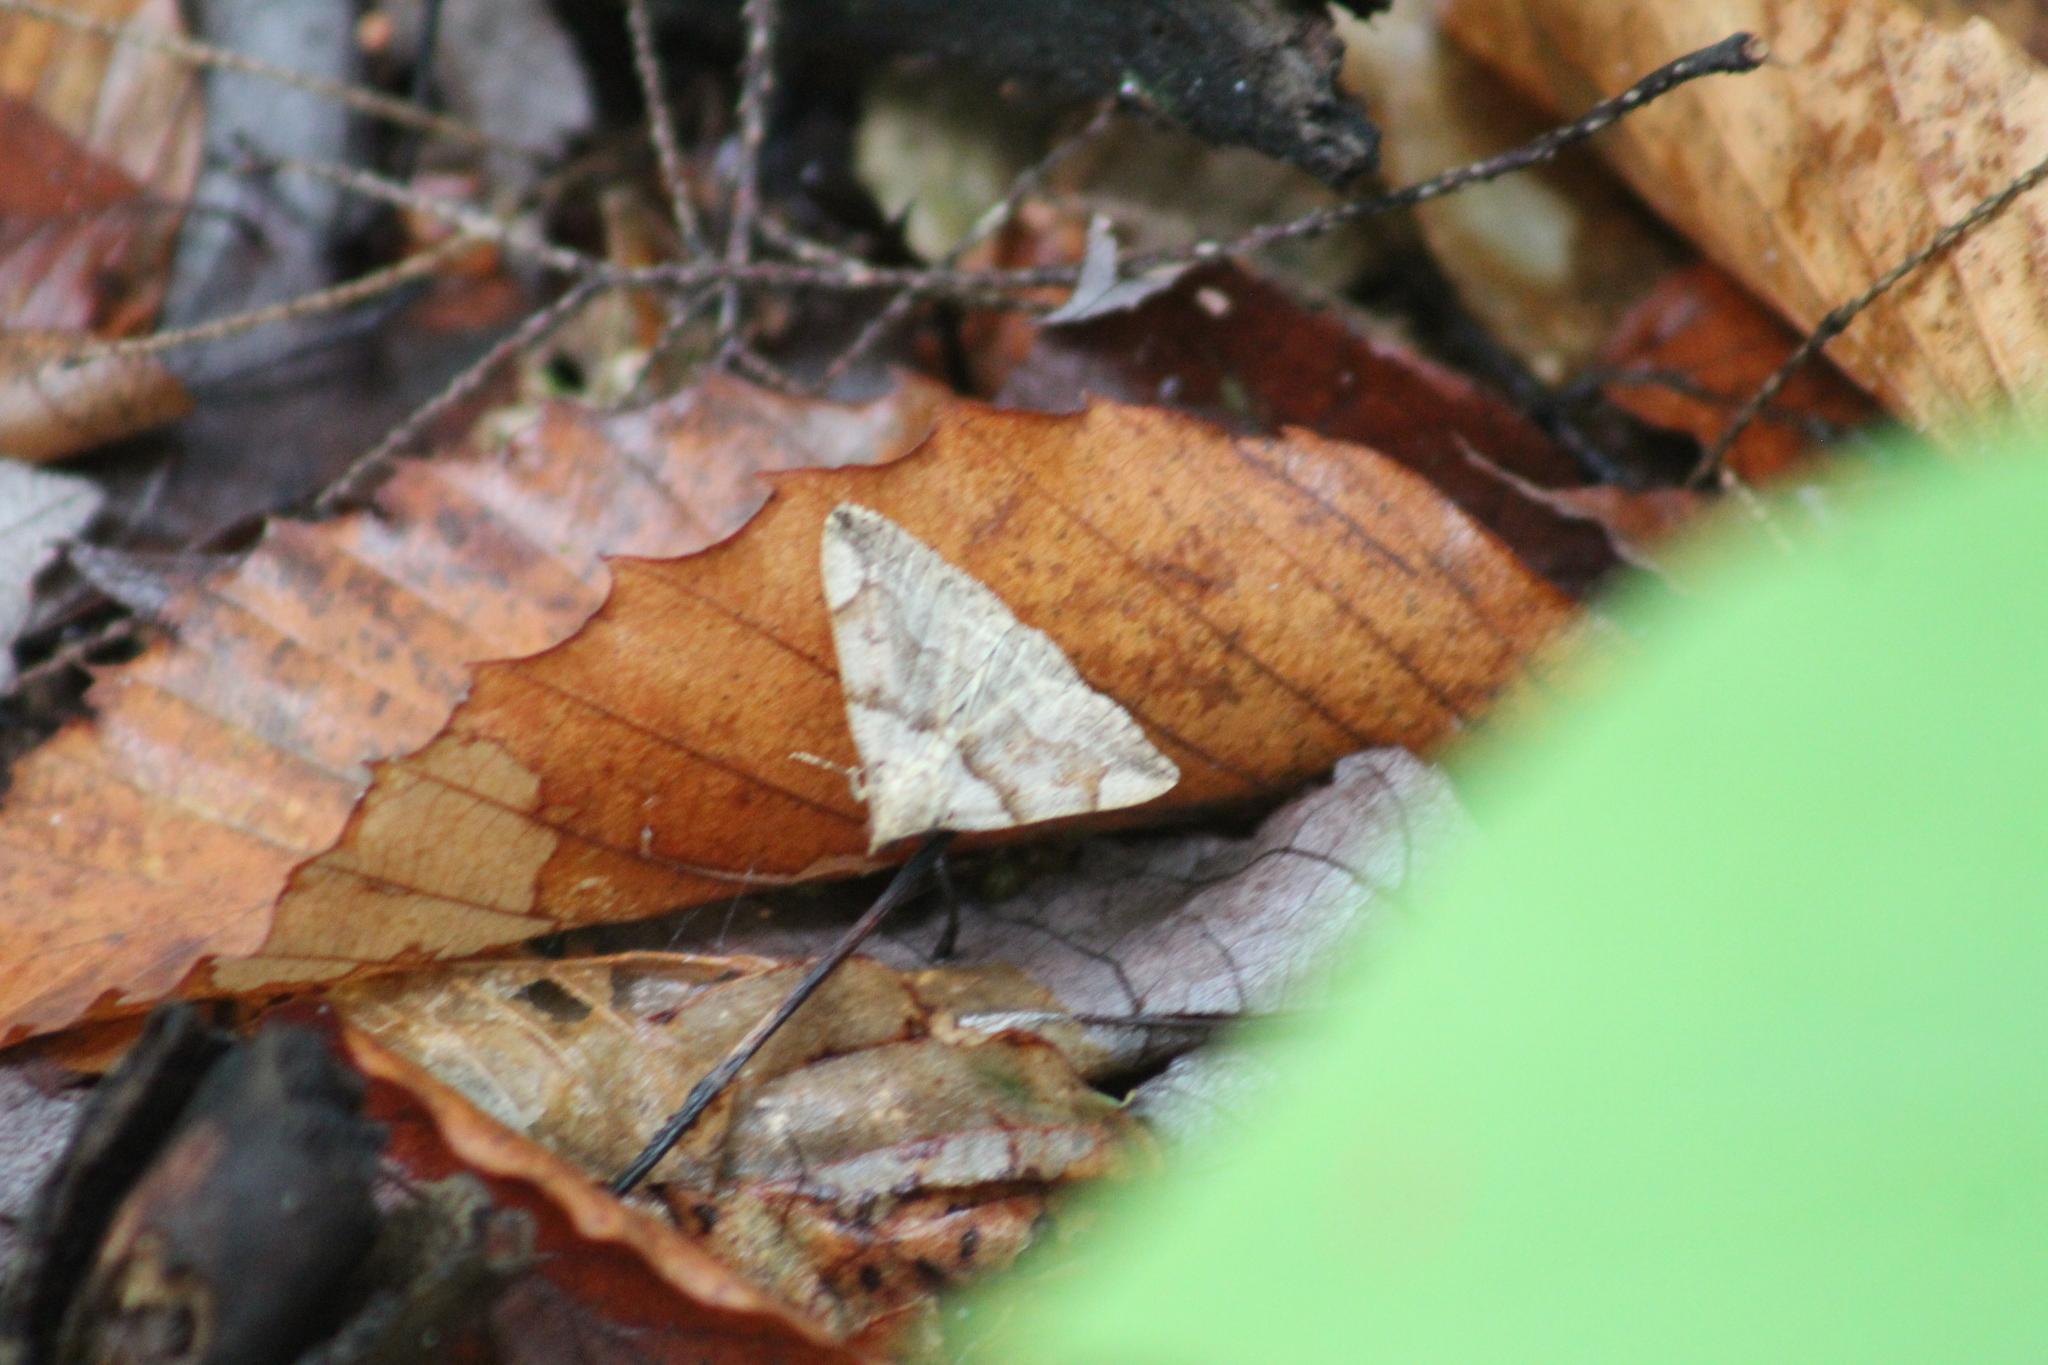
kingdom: Animalia
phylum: Arthropoda
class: Insecta
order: Lepidoptera
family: Erebidae
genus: Zanclognatha
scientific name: Zanclognatha laevigata
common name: Variable fan-foot
